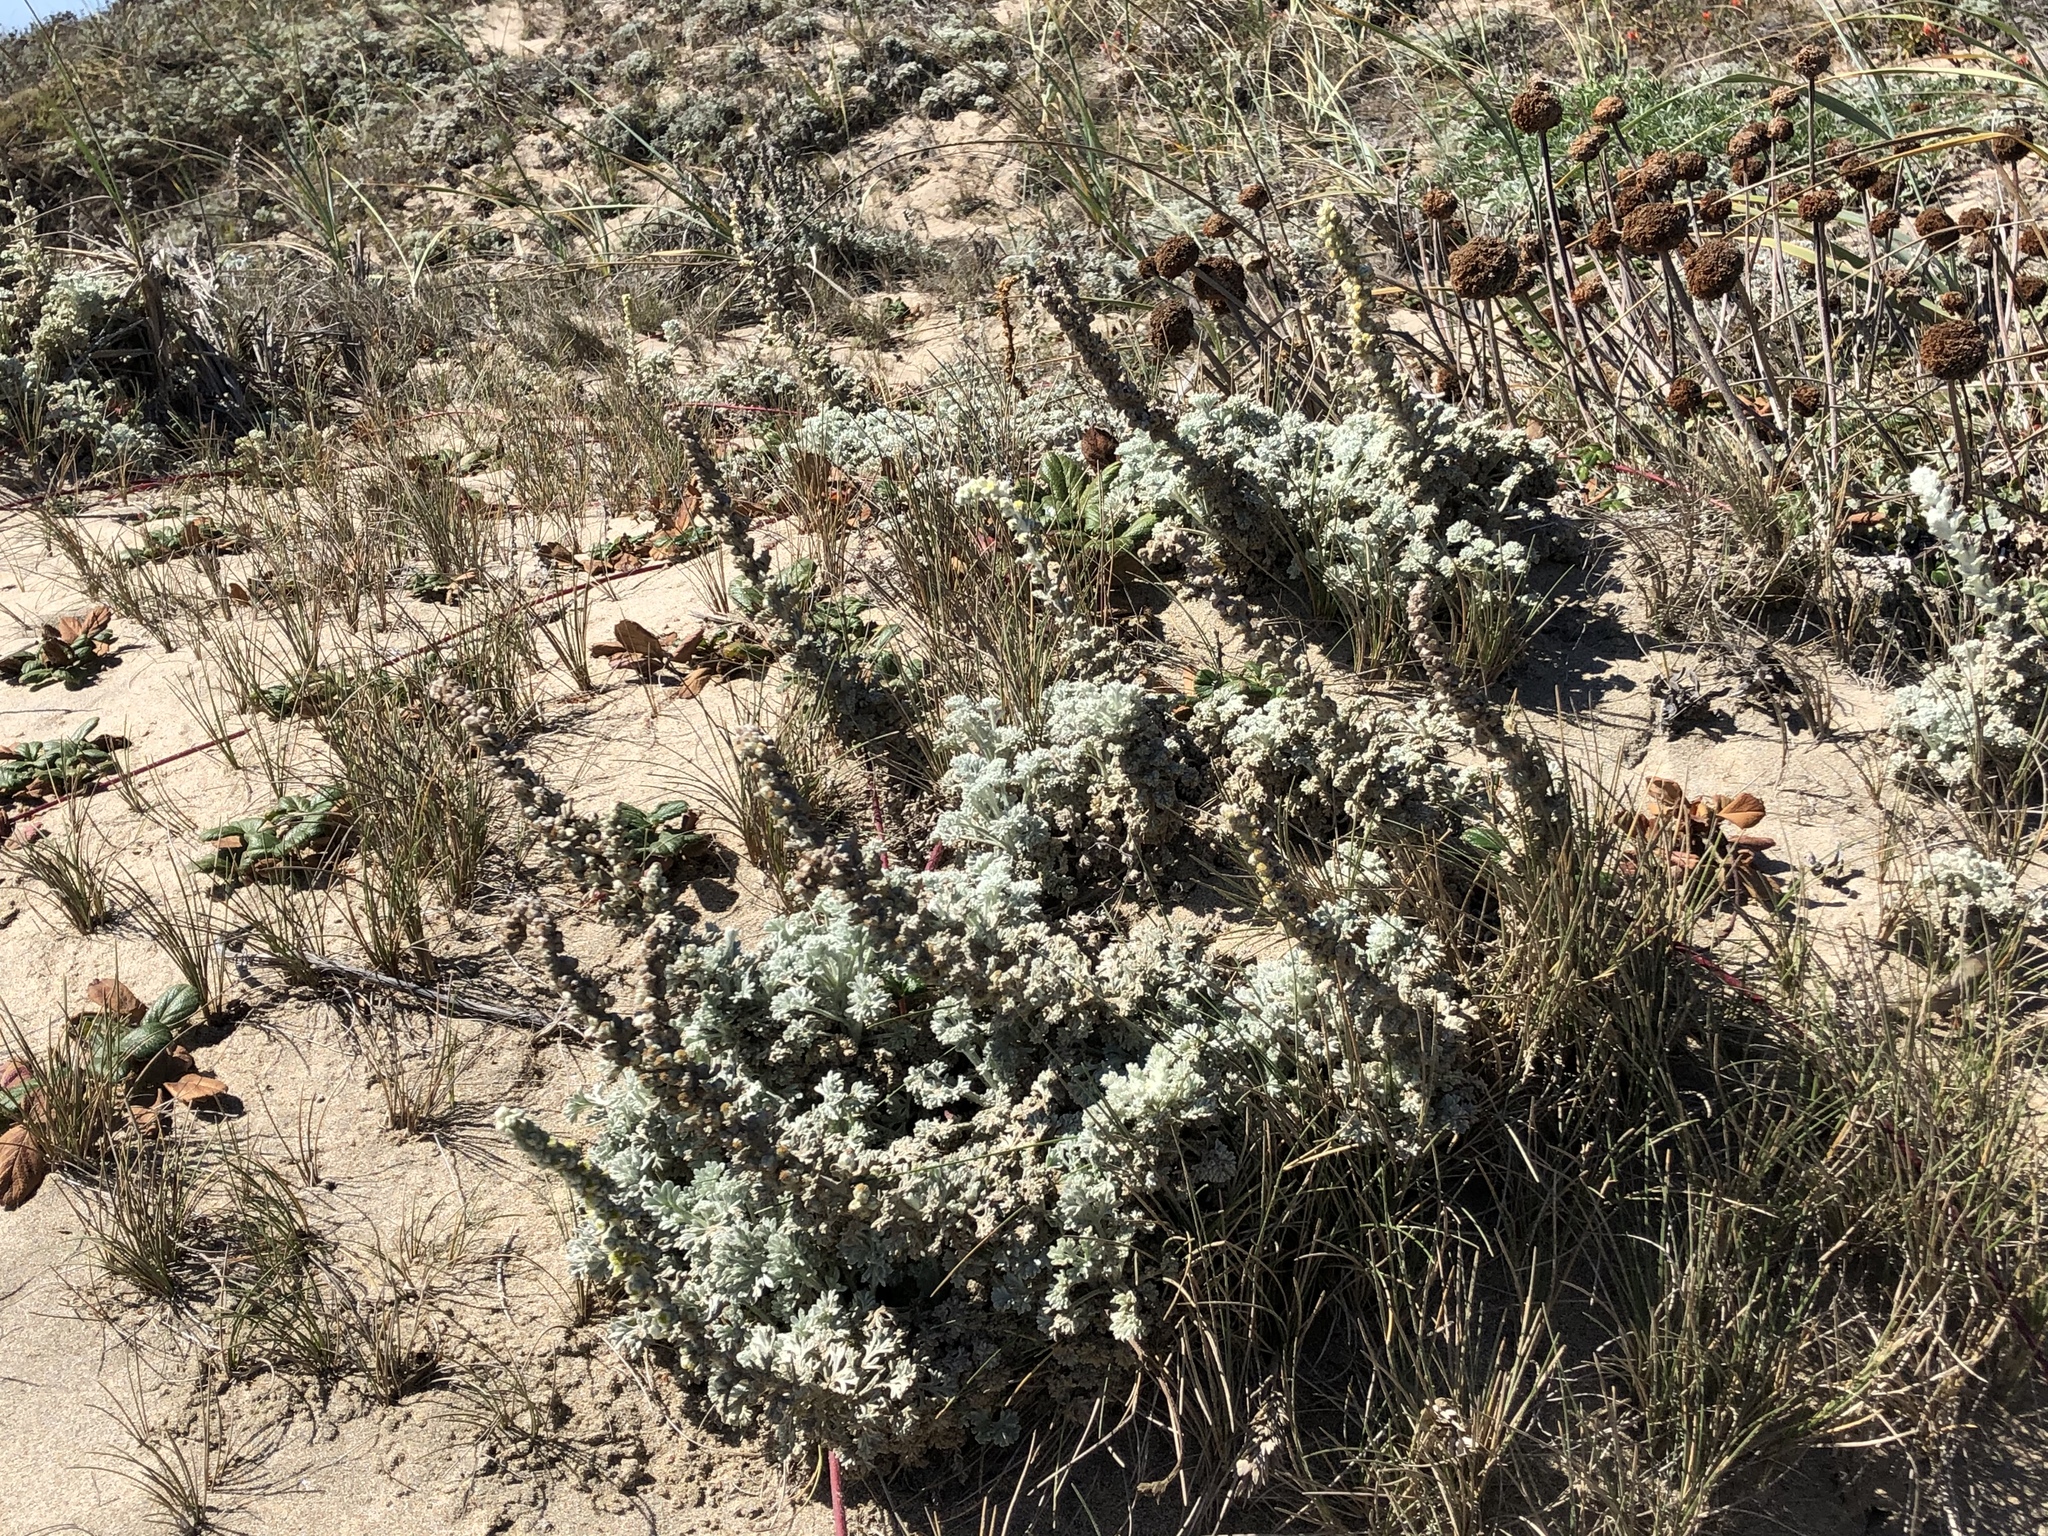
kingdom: Plantae
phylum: Tracheophyta
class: Magnoliopsida
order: Asterales
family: Asteraceae
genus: Artemisia
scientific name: Artemisia pycnocephala
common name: Coastal sagewort
